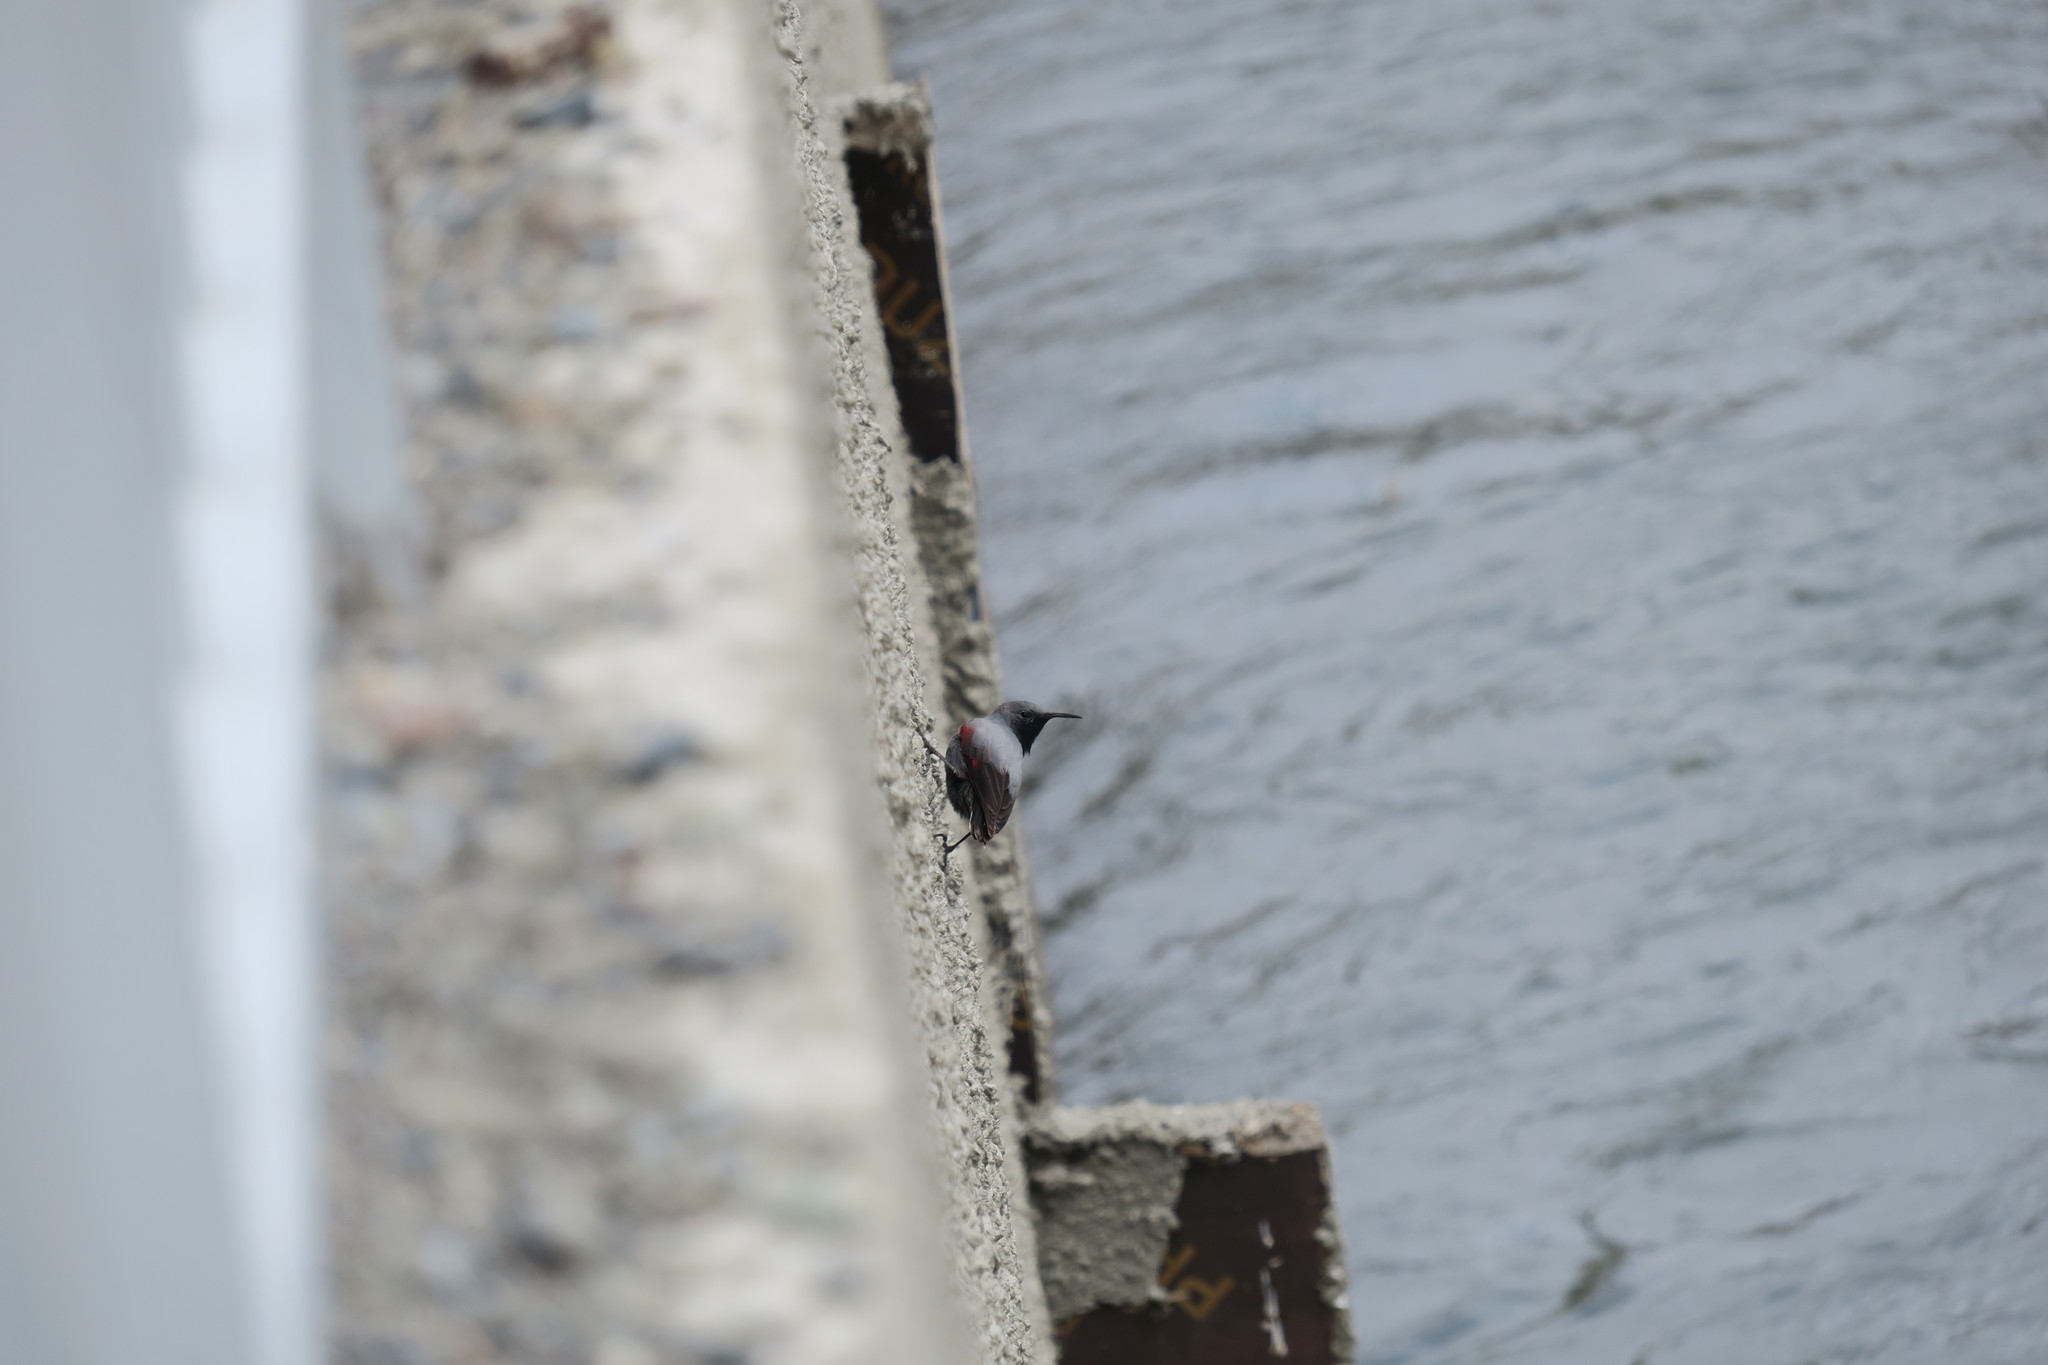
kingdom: Animalia
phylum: Chordata
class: Aves
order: Passeriformes
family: Tichodromidae
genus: Tichodroma
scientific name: Tichodroma muraria
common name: Wallcreeper
